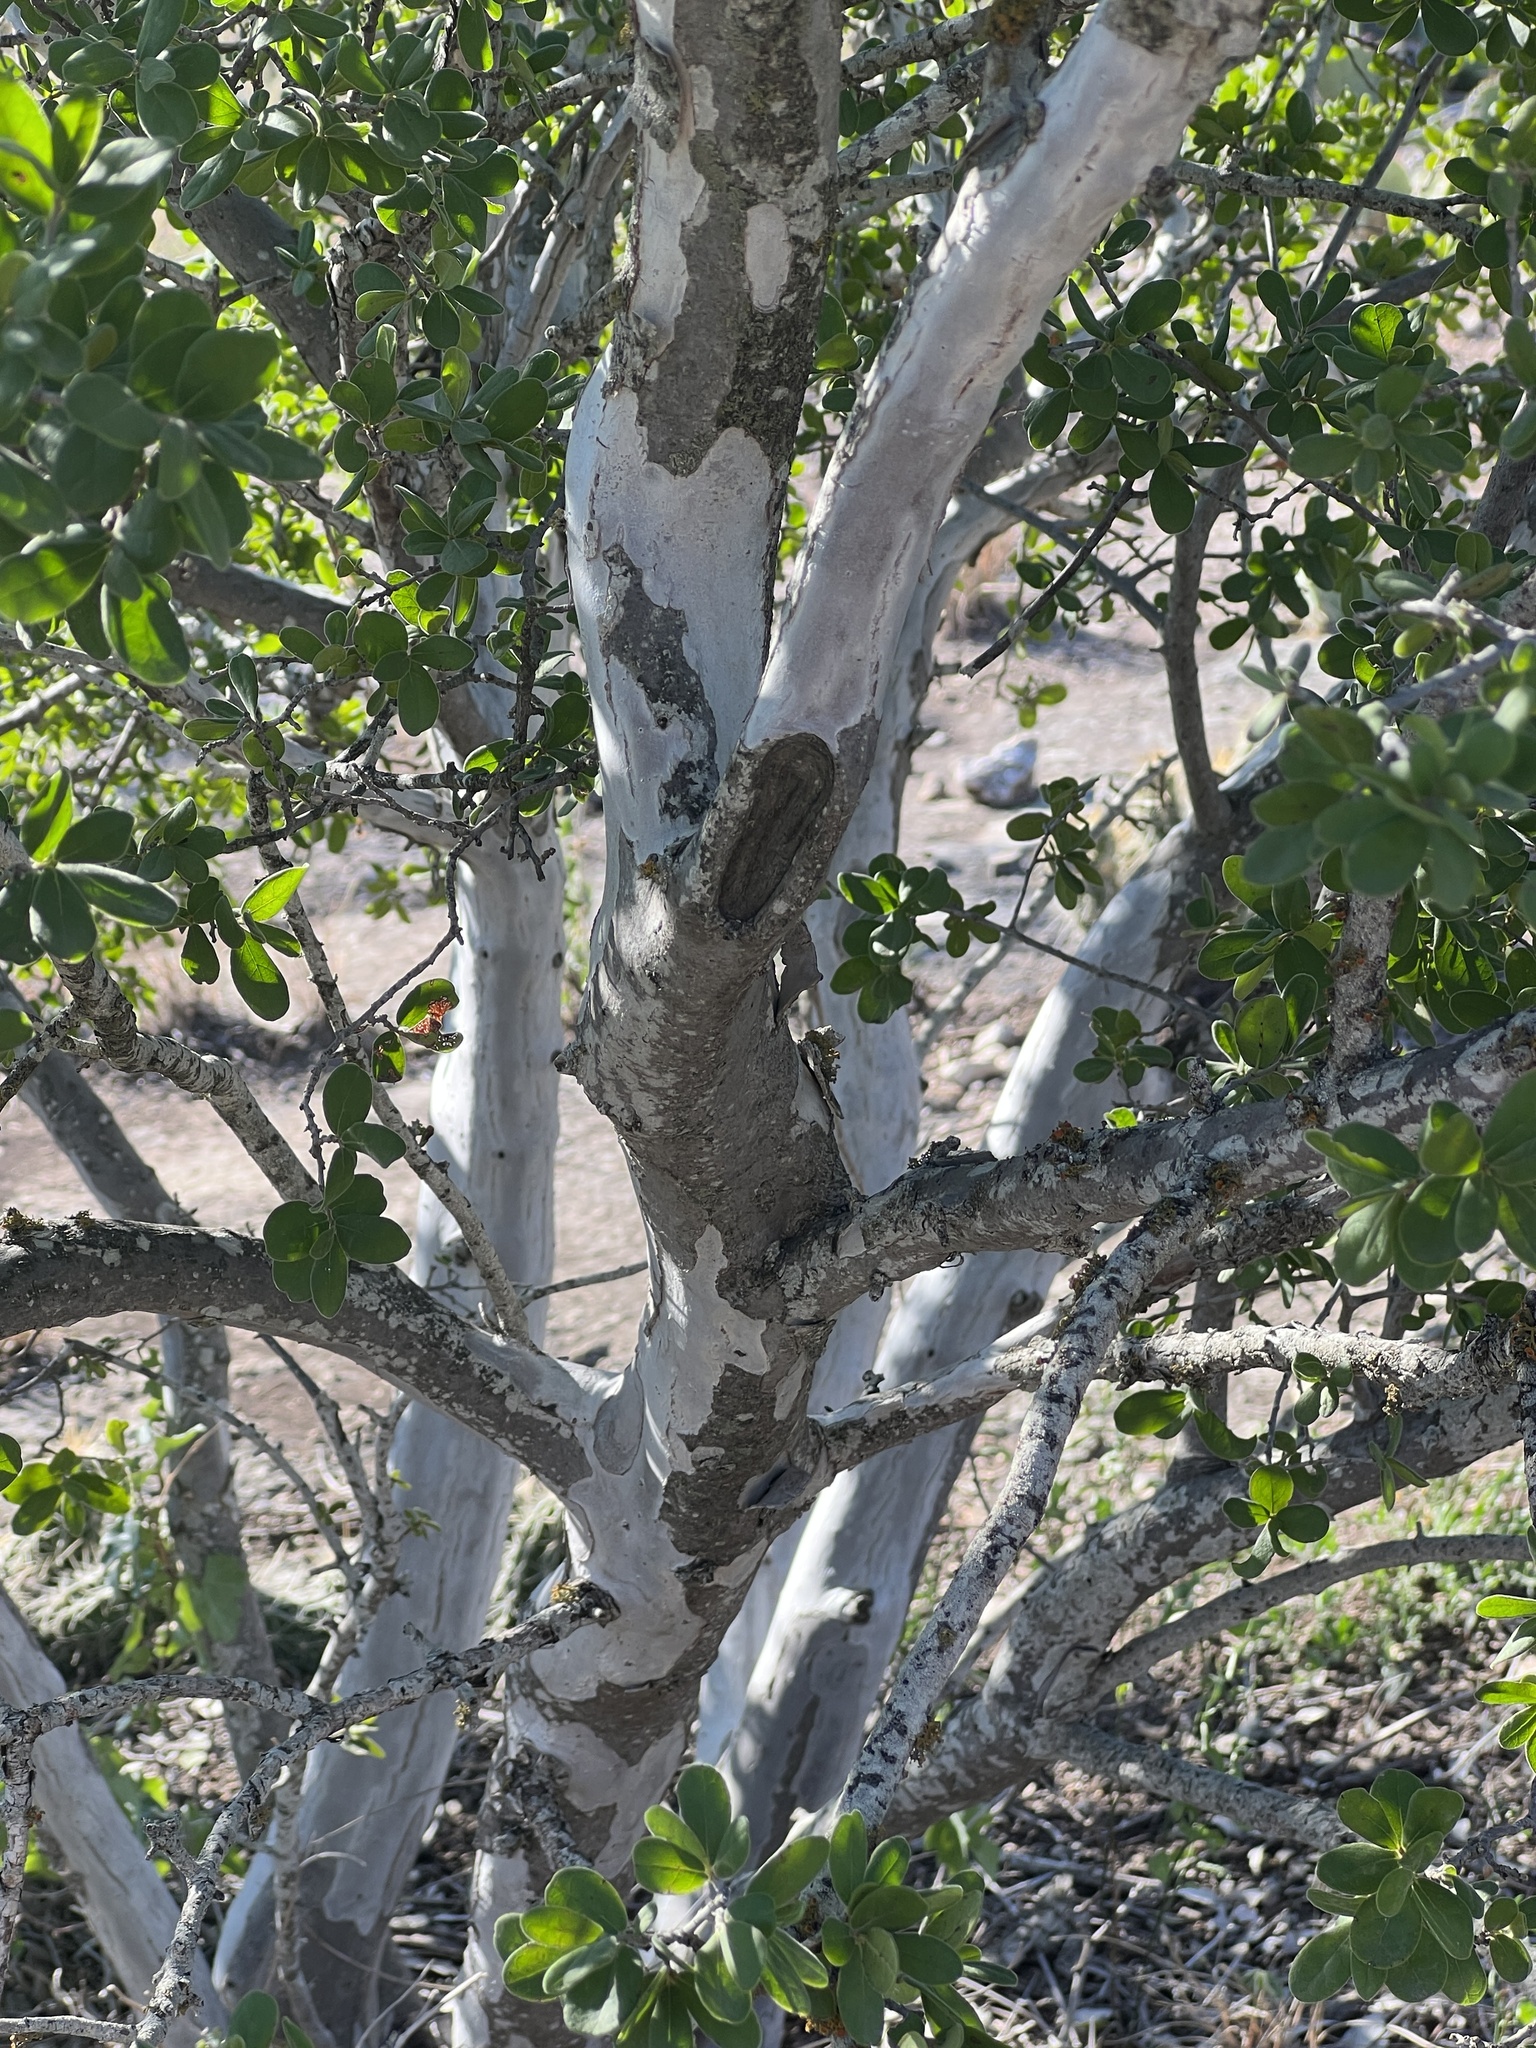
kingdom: Plantae
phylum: Tracheophyta
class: Magnoliopsida
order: Ericales
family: Ebenaceae
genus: Diospyros
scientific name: Diospyros texana
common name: Texas persimmon
